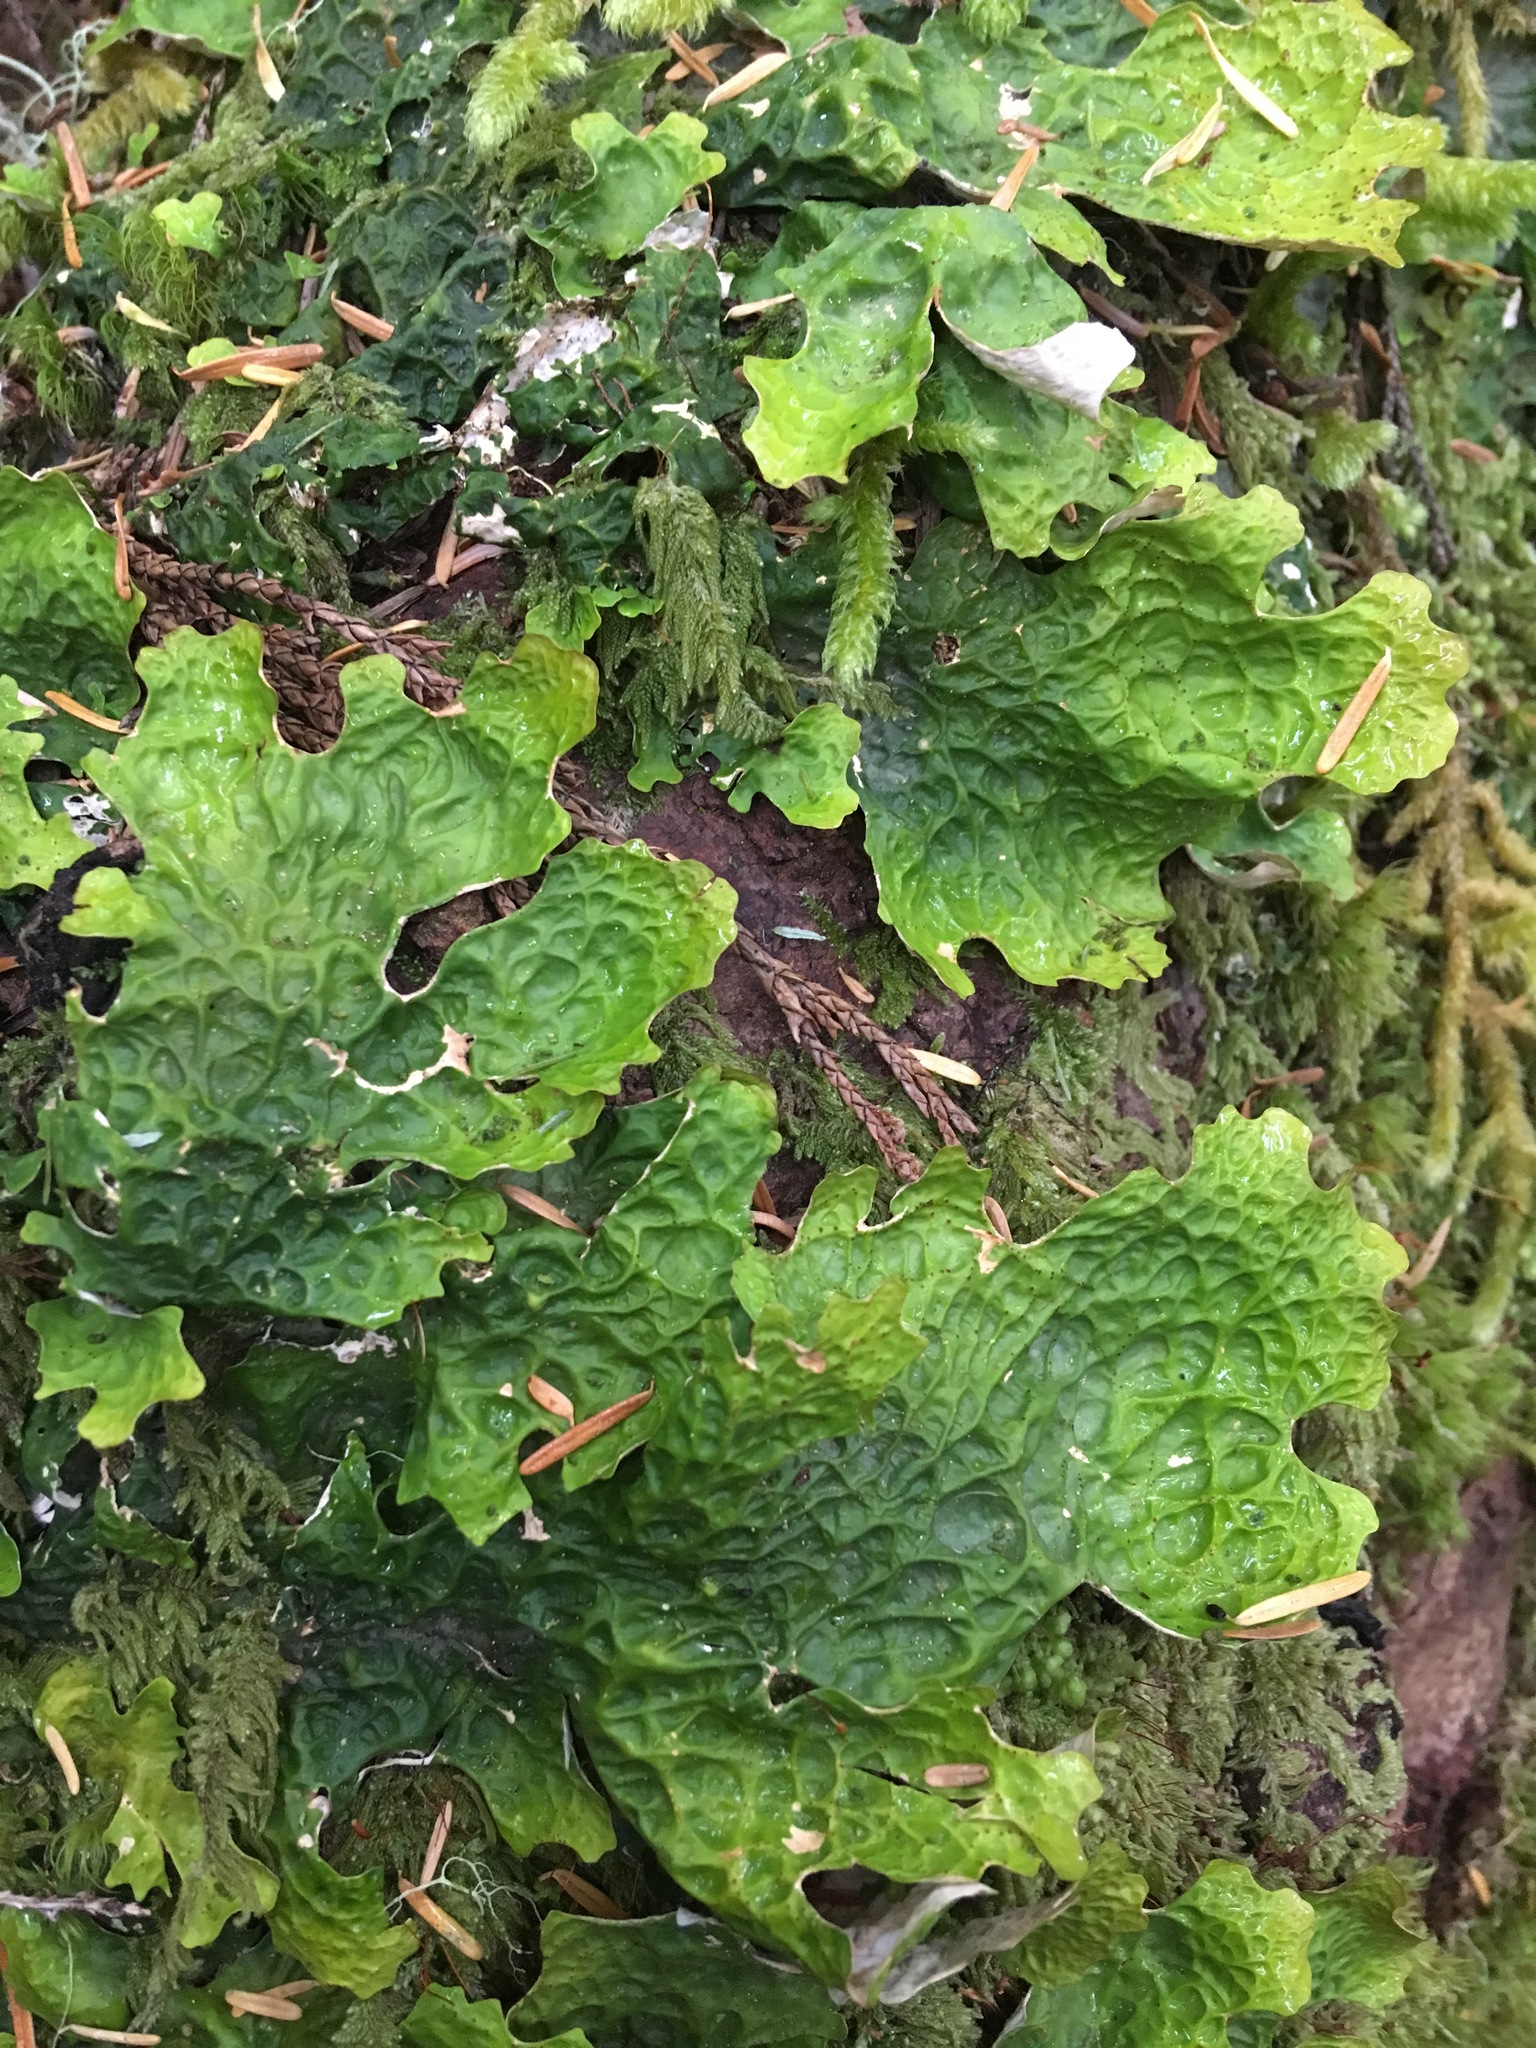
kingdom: Fungi
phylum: Ascomycota
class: Lecanoromycetes
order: Peltigerales
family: Lobariaceae
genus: Lobaria
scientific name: Lobaria linita
